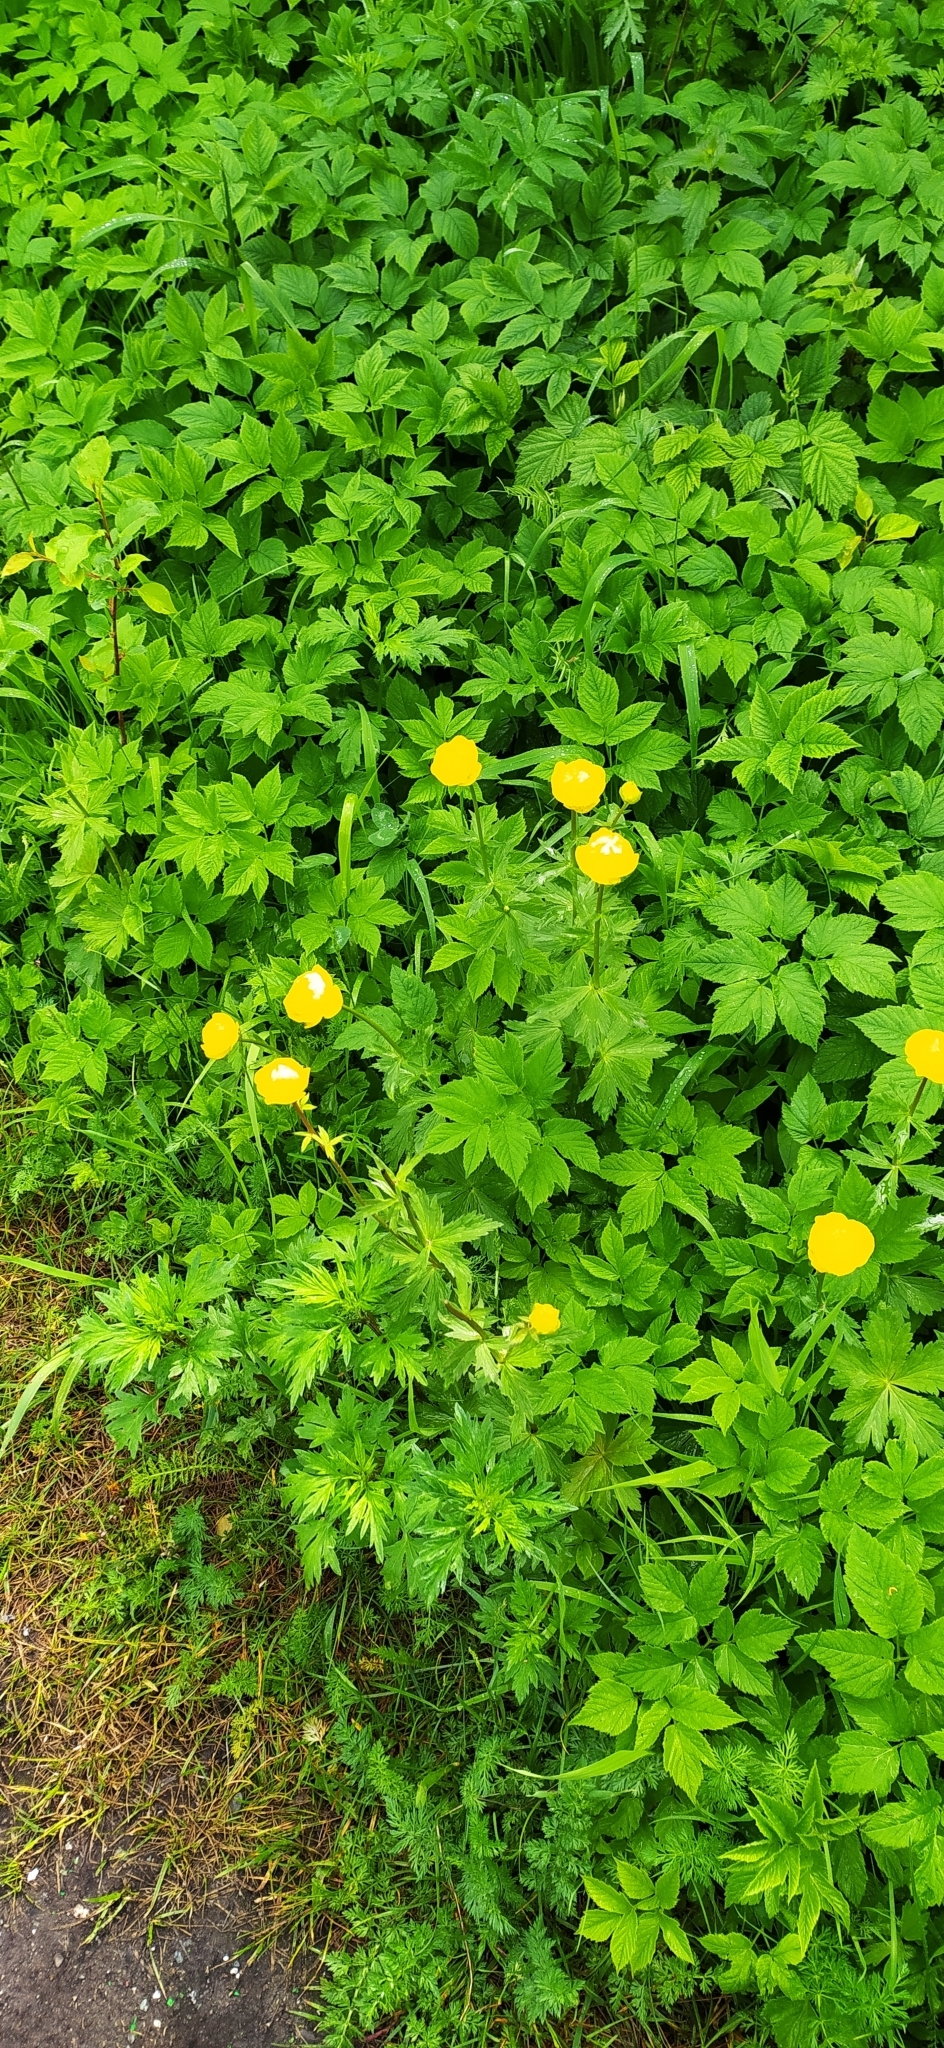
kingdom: Plantae
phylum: Tracheophyta
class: Magnoliopsida
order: Ranunculales
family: Ranunculaceae
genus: Trollius
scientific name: Trollius europaeus
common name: European globeflower
